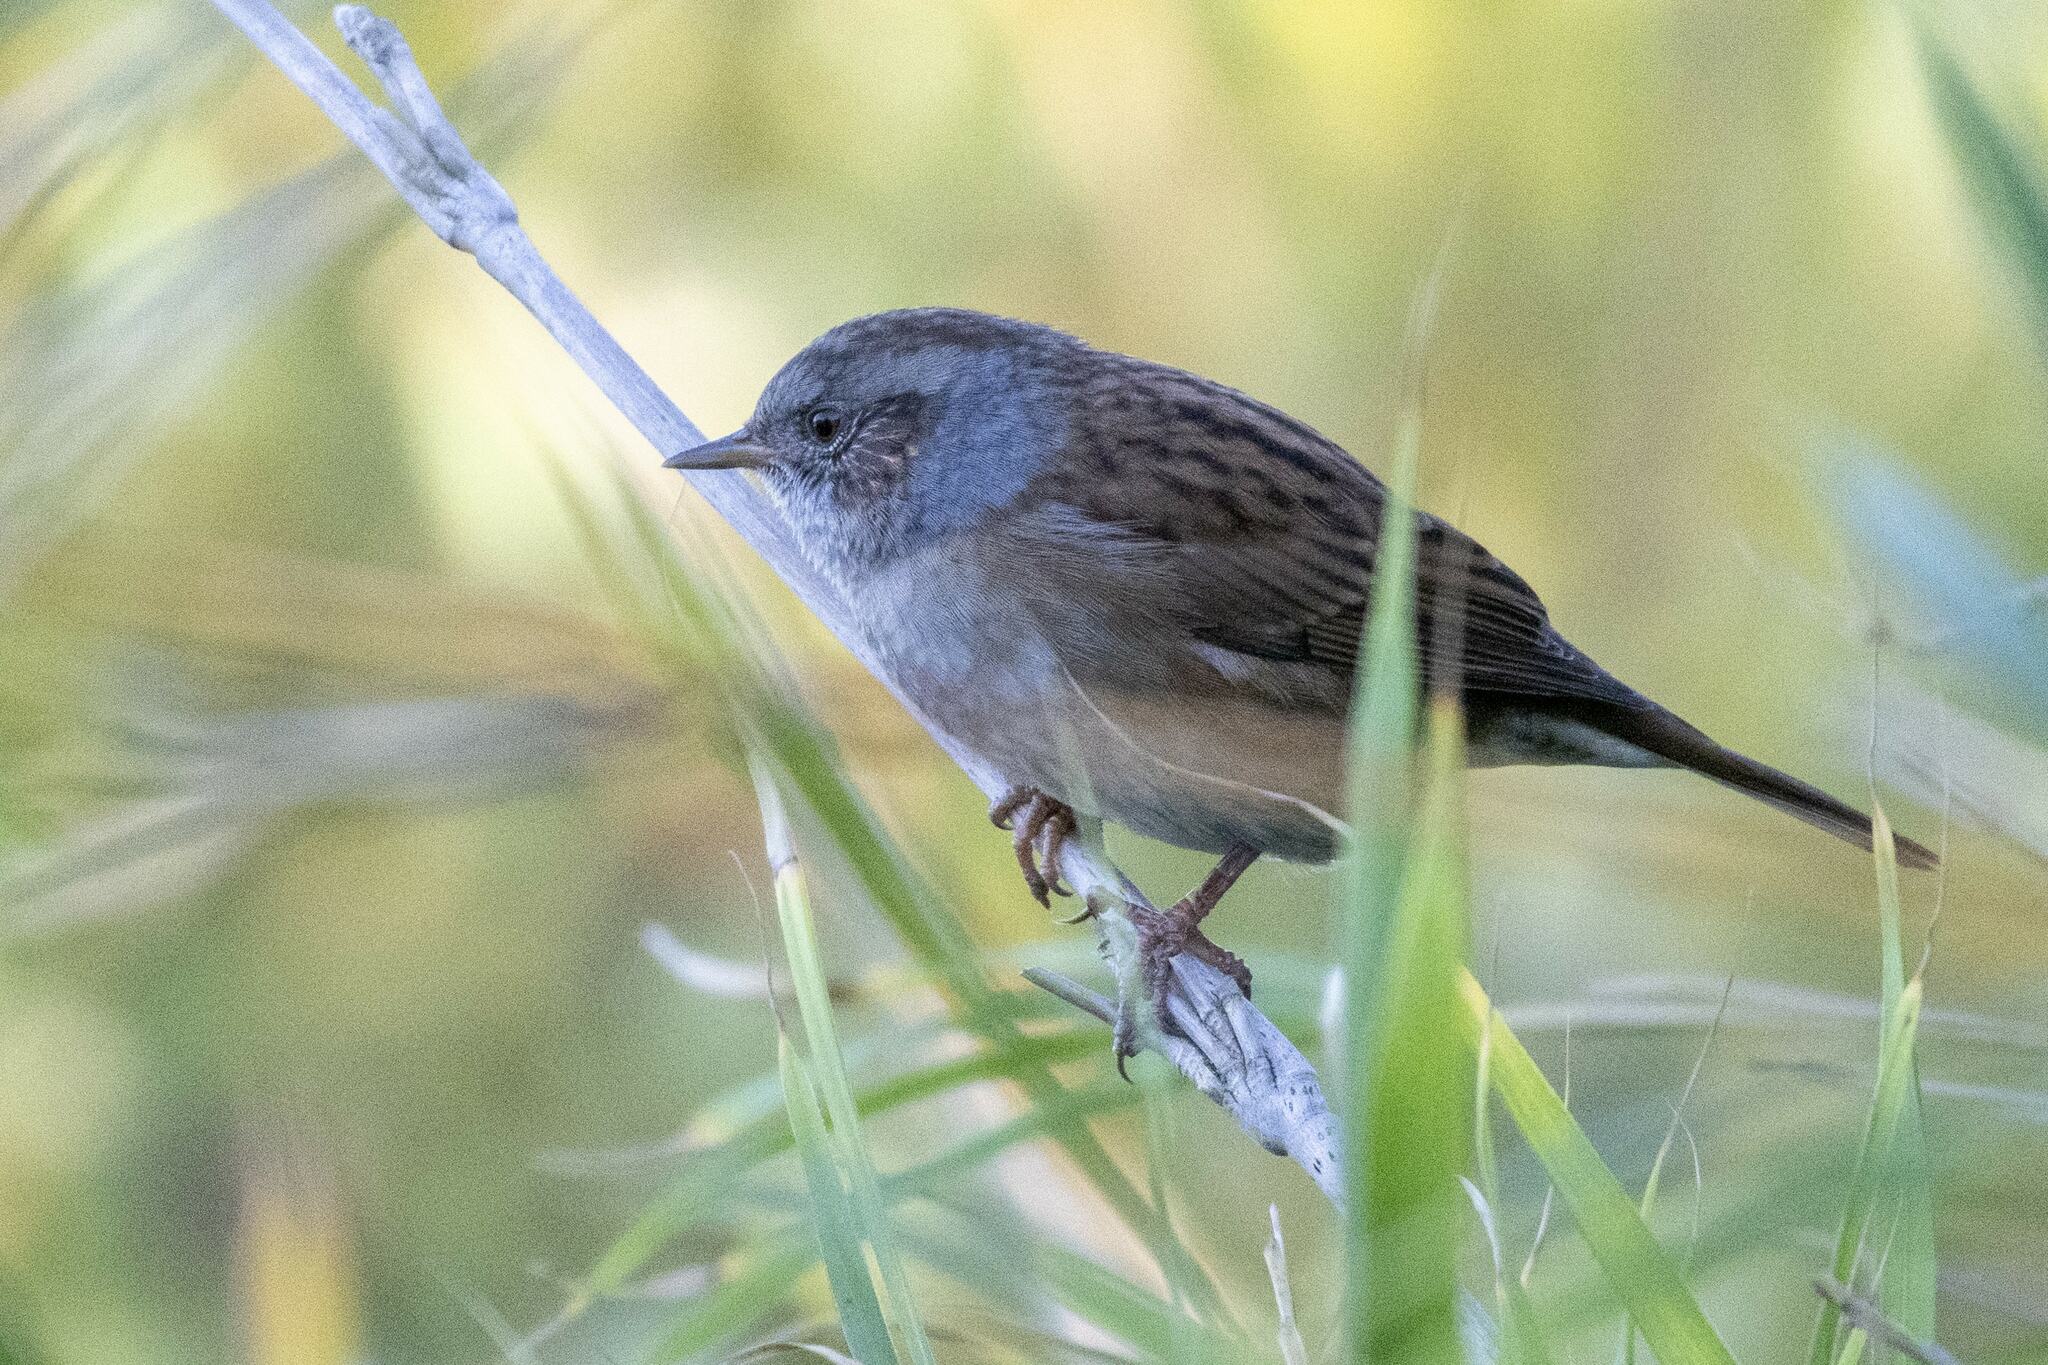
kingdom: Animalia
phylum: Chordata
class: Aves
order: Passeriformes
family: Prunellidae
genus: Prunella
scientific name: Prunella modularis
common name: Dunnock
